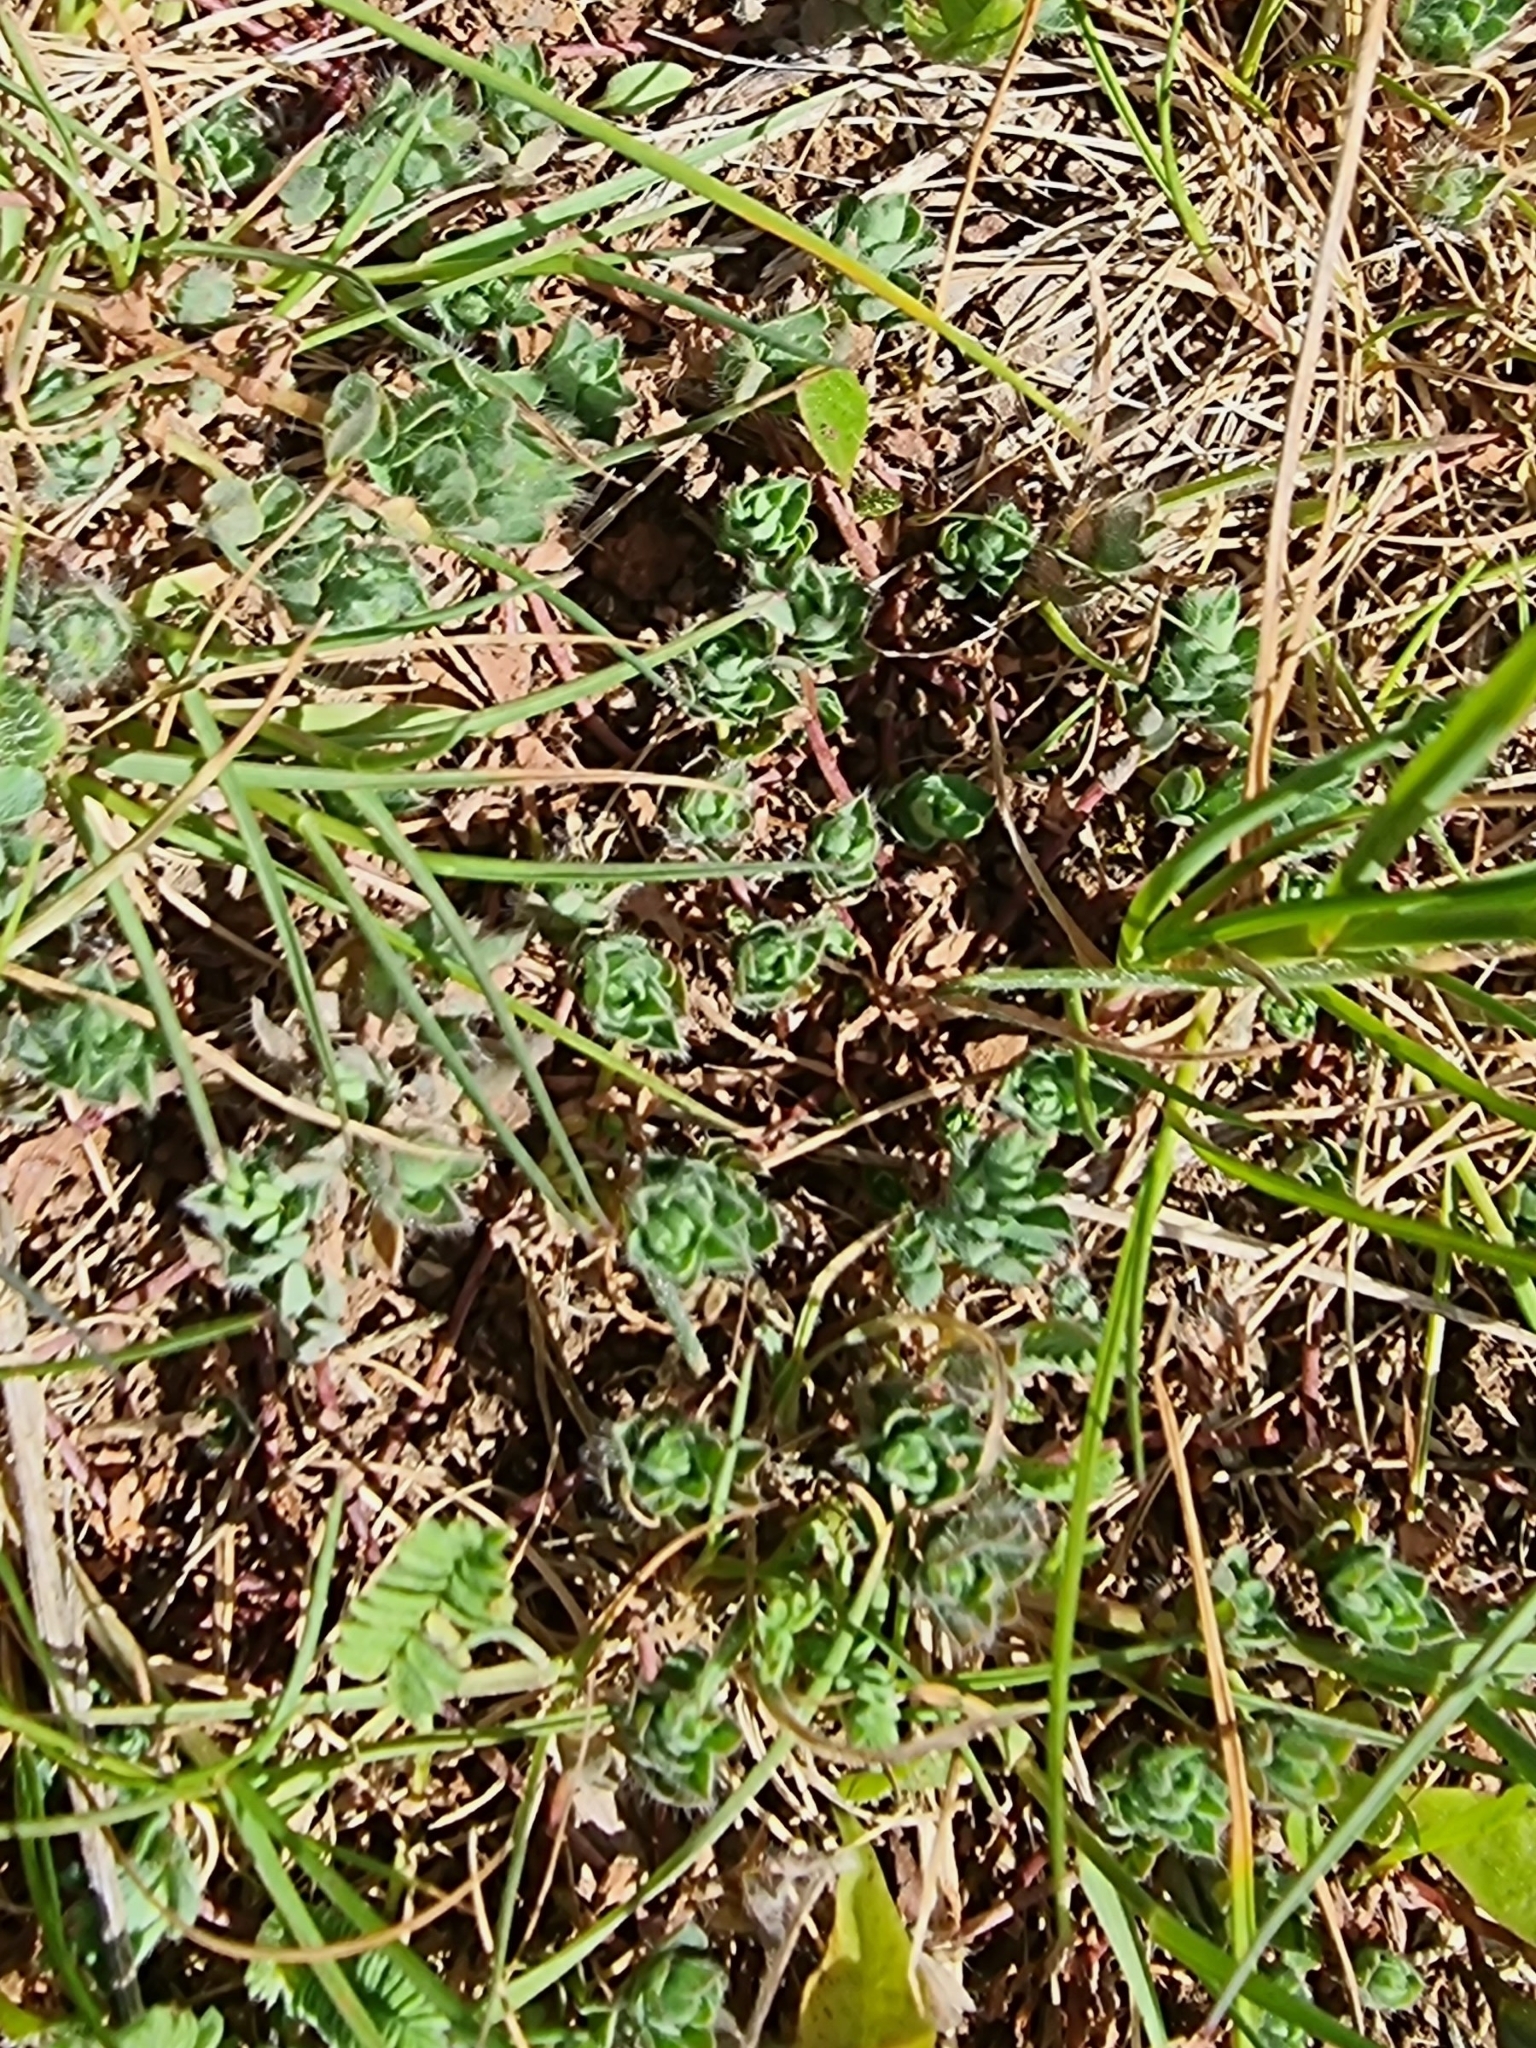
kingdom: Plantae
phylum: Tracheophyta
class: Magnoliopsida
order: Fabales
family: Fabaceae
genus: Lotus
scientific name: Lotus hispidus
